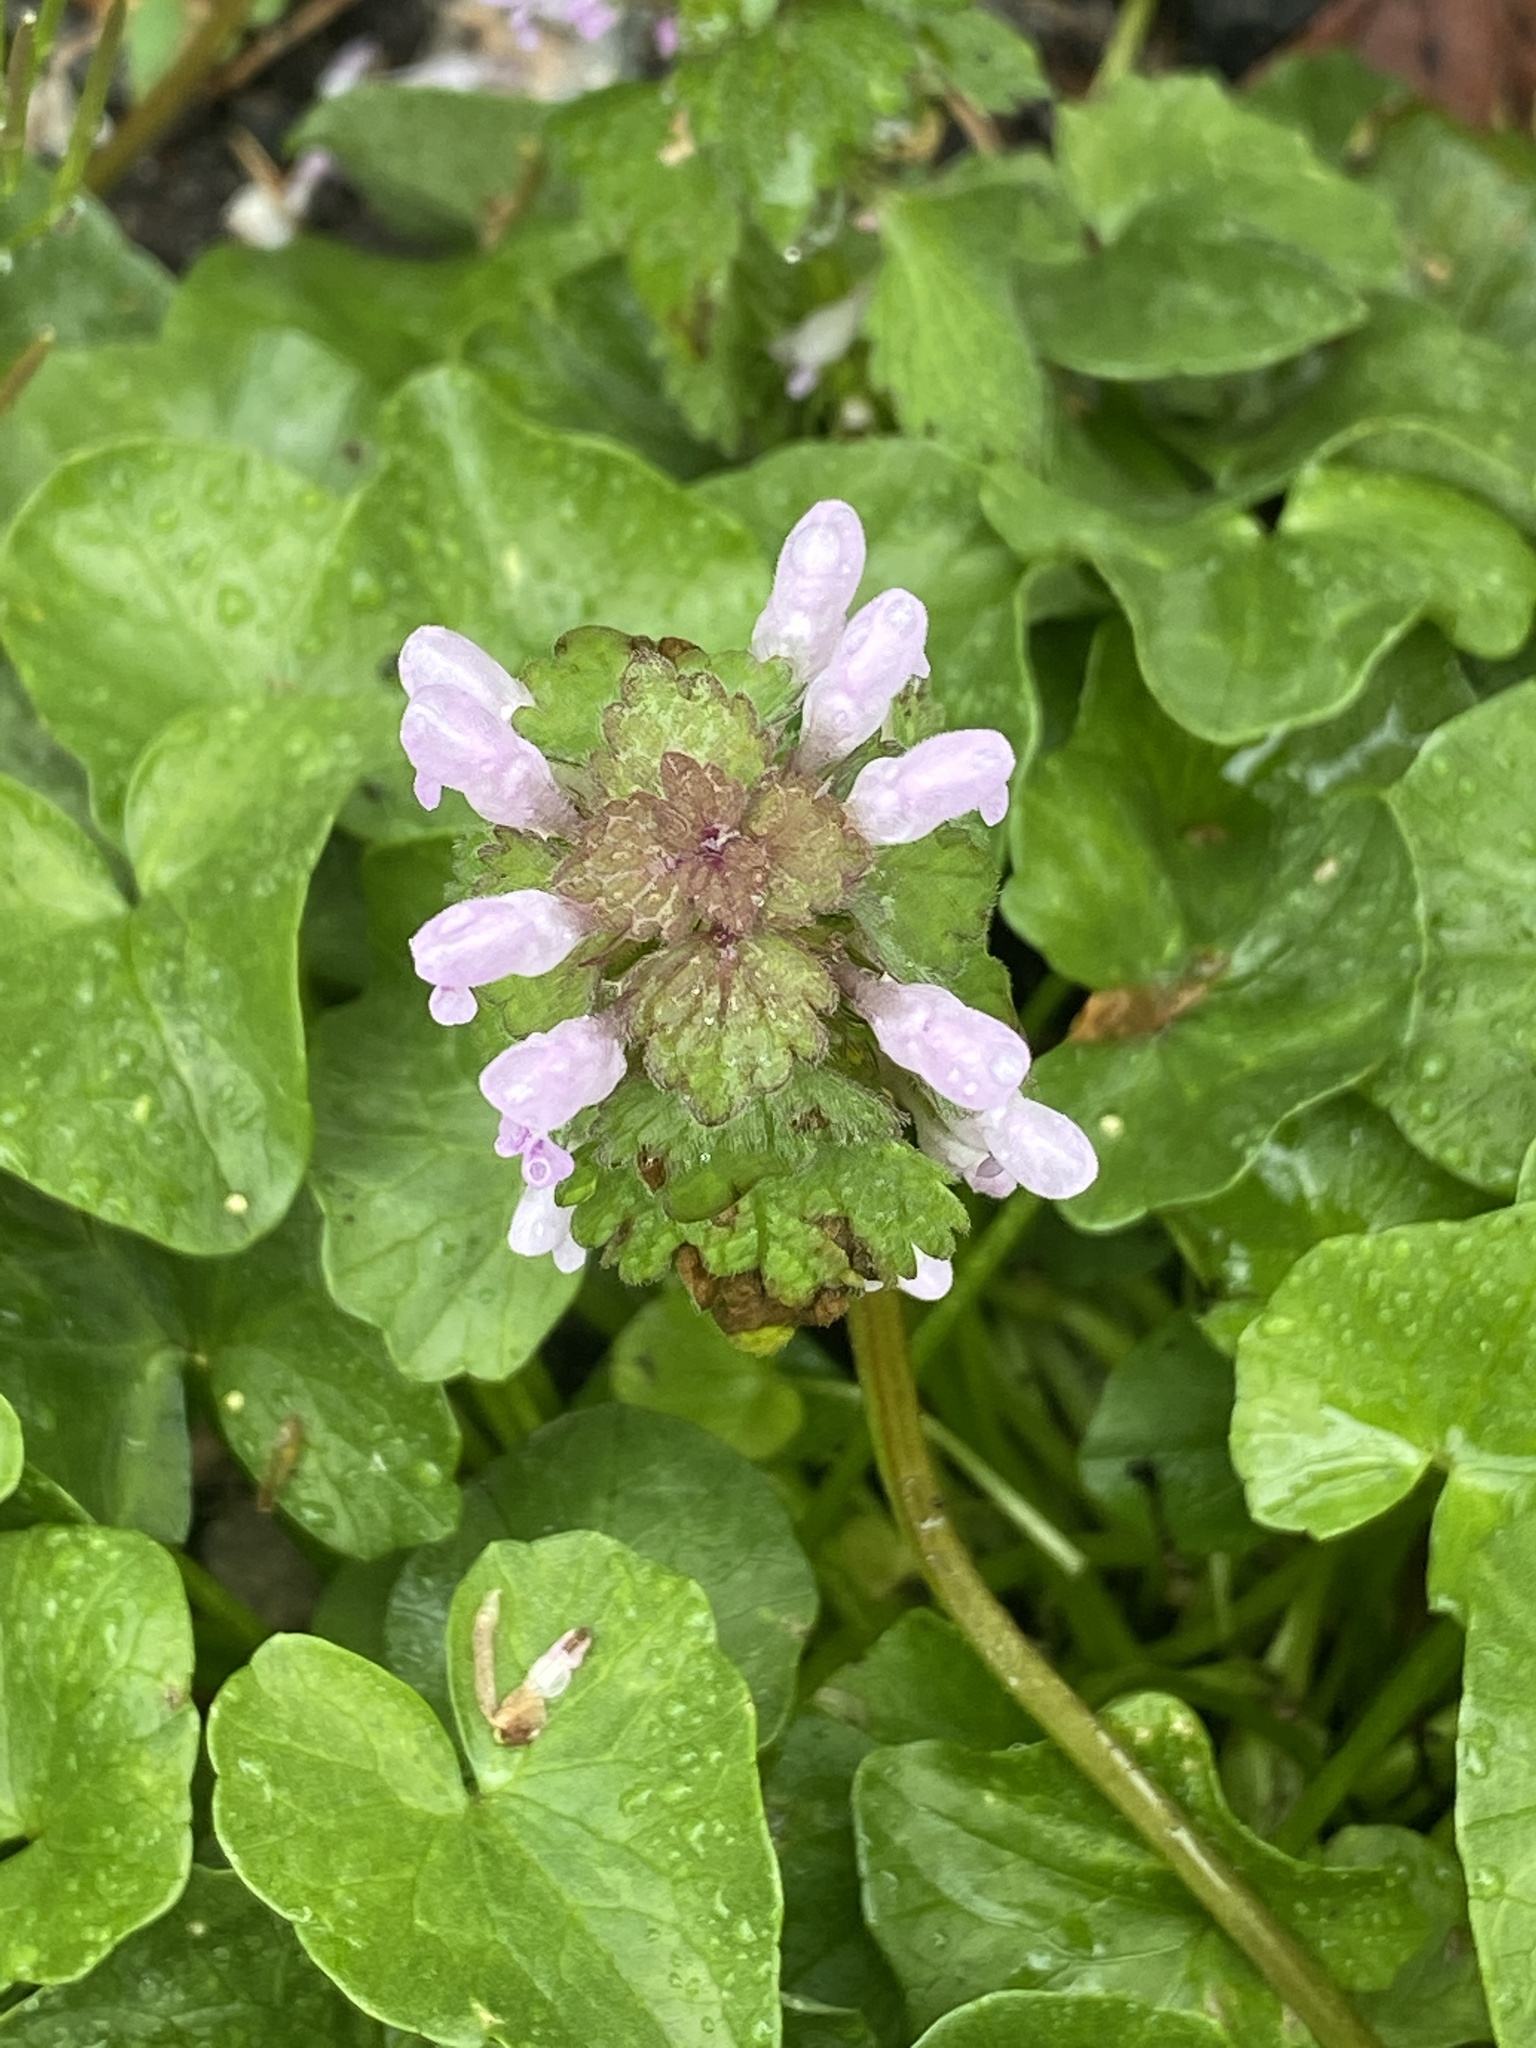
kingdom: Plantae
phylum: Tracheophyta
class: Magnoliopsida
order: Lamiales
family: Lamiaceae
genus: Lamium
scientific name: Lamium purpureum
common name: Red dead-nettle
